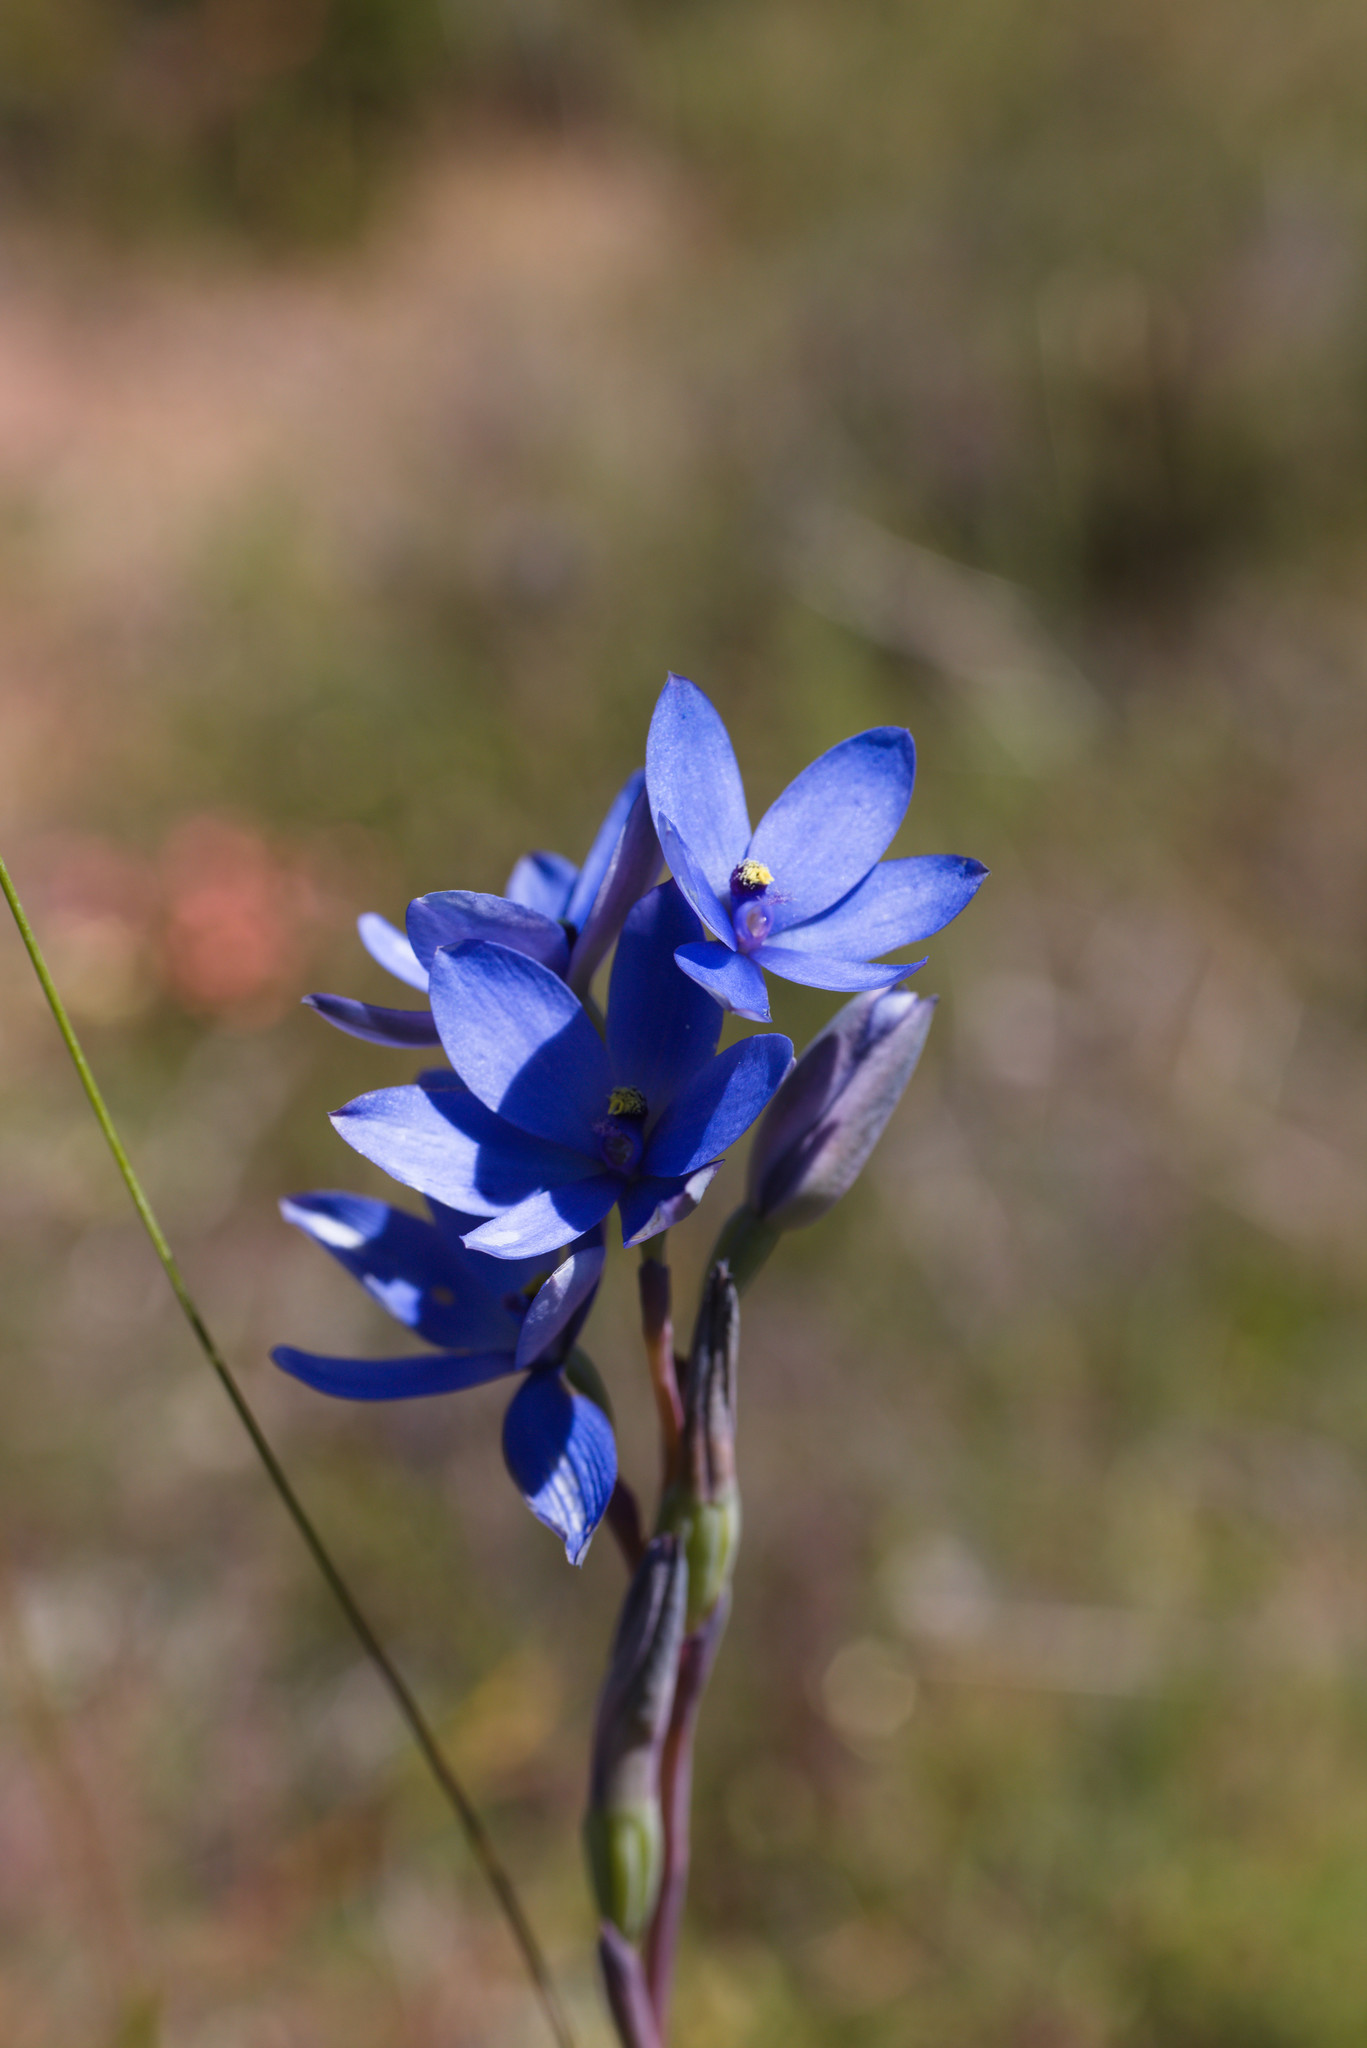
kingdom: Plantae
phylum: Tracheophyta
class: Liliopsida
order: Asparagales
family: Orchidaceae
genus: Thelymitra
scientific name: Thelymitra crinita
